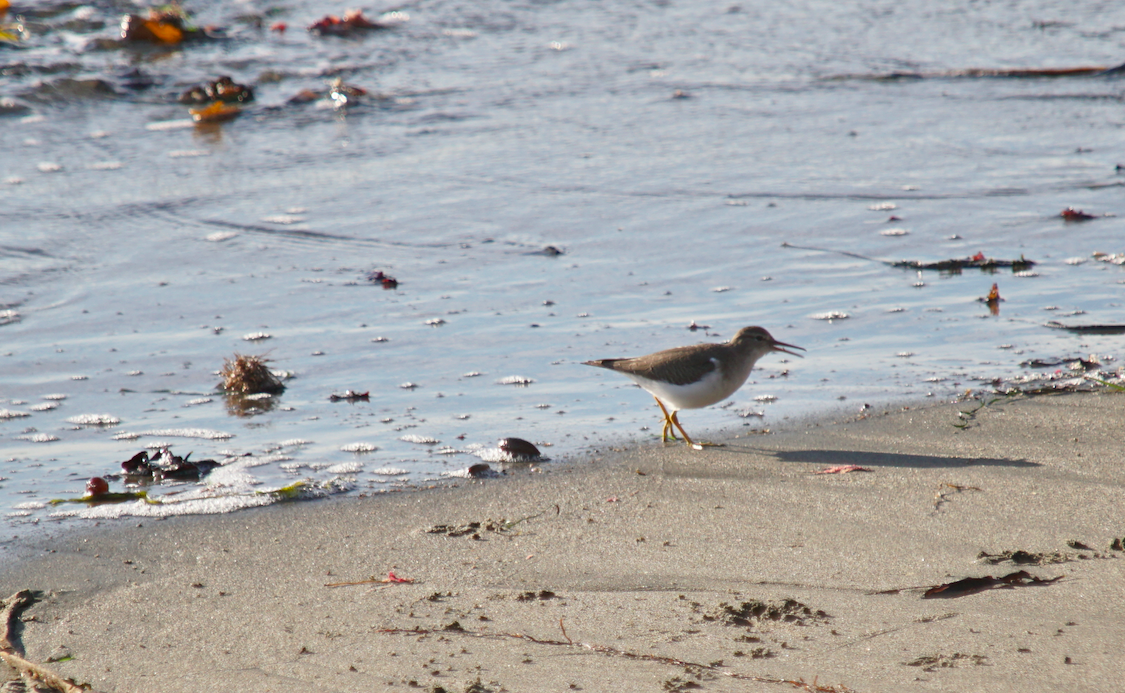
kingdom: Animalia
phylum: Chordata
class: Aves
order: Charadriiformes
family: Scolopacidae
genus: Actitis
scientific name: Actitis macularius
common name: Spotted sandpiper
